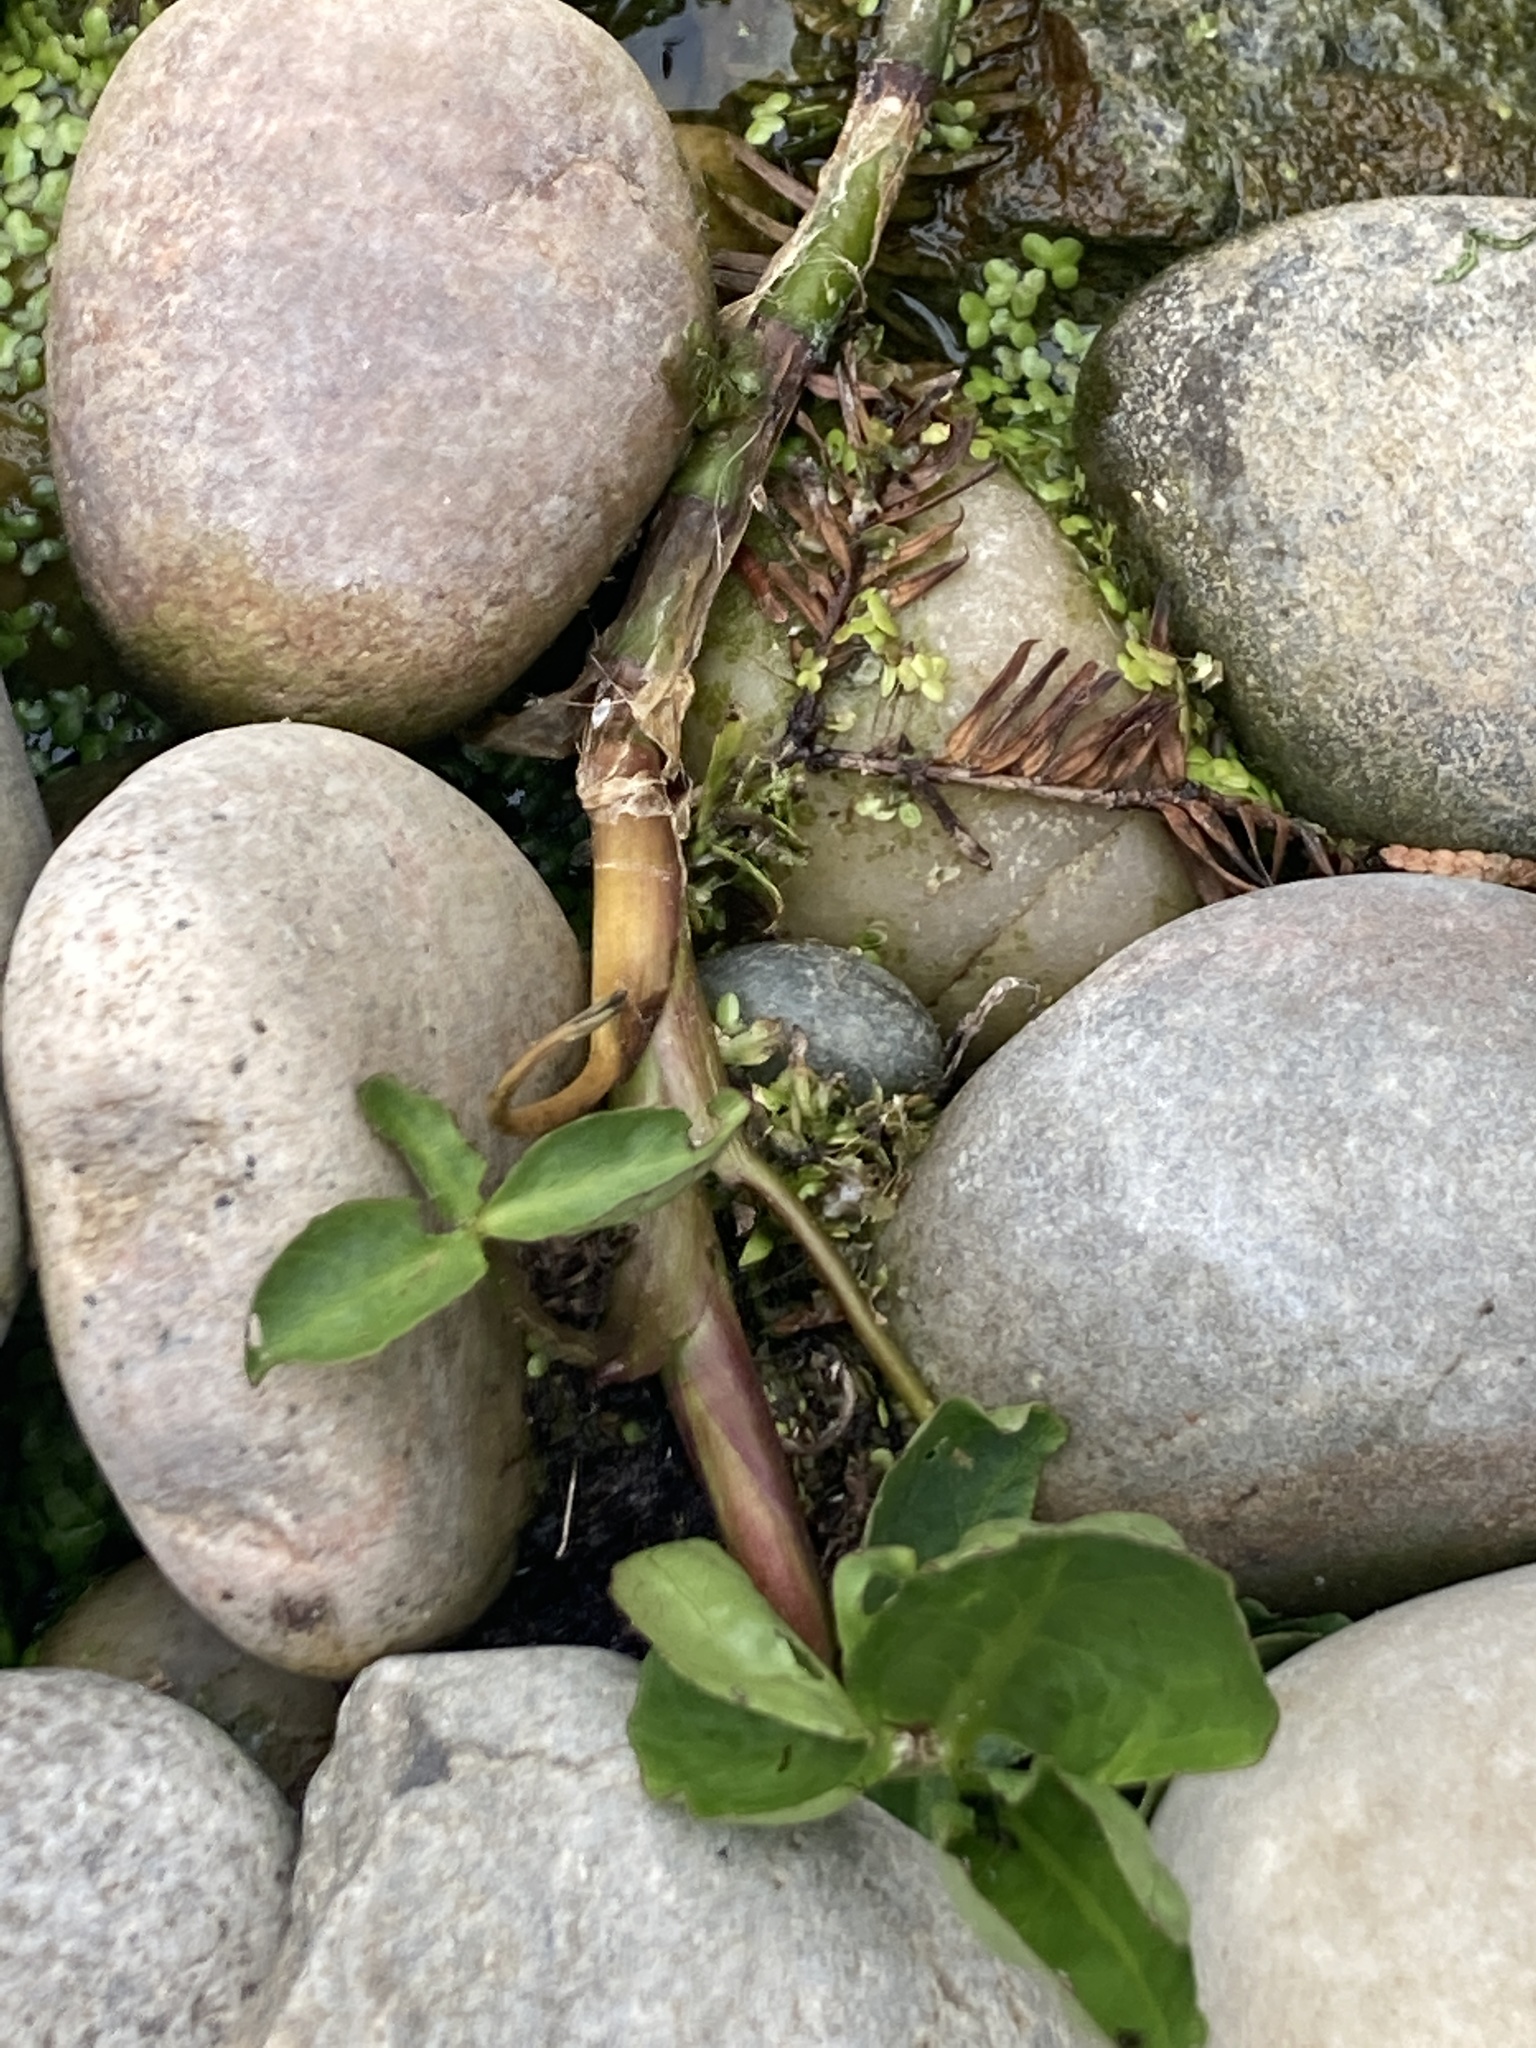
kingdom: Plantae
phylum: Tracheophyta
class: Magnoliopsida
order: Asterales
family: Menyanthaceae
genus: Menyanthes
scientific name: Menyanthes trifoliata
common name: Bogbean
